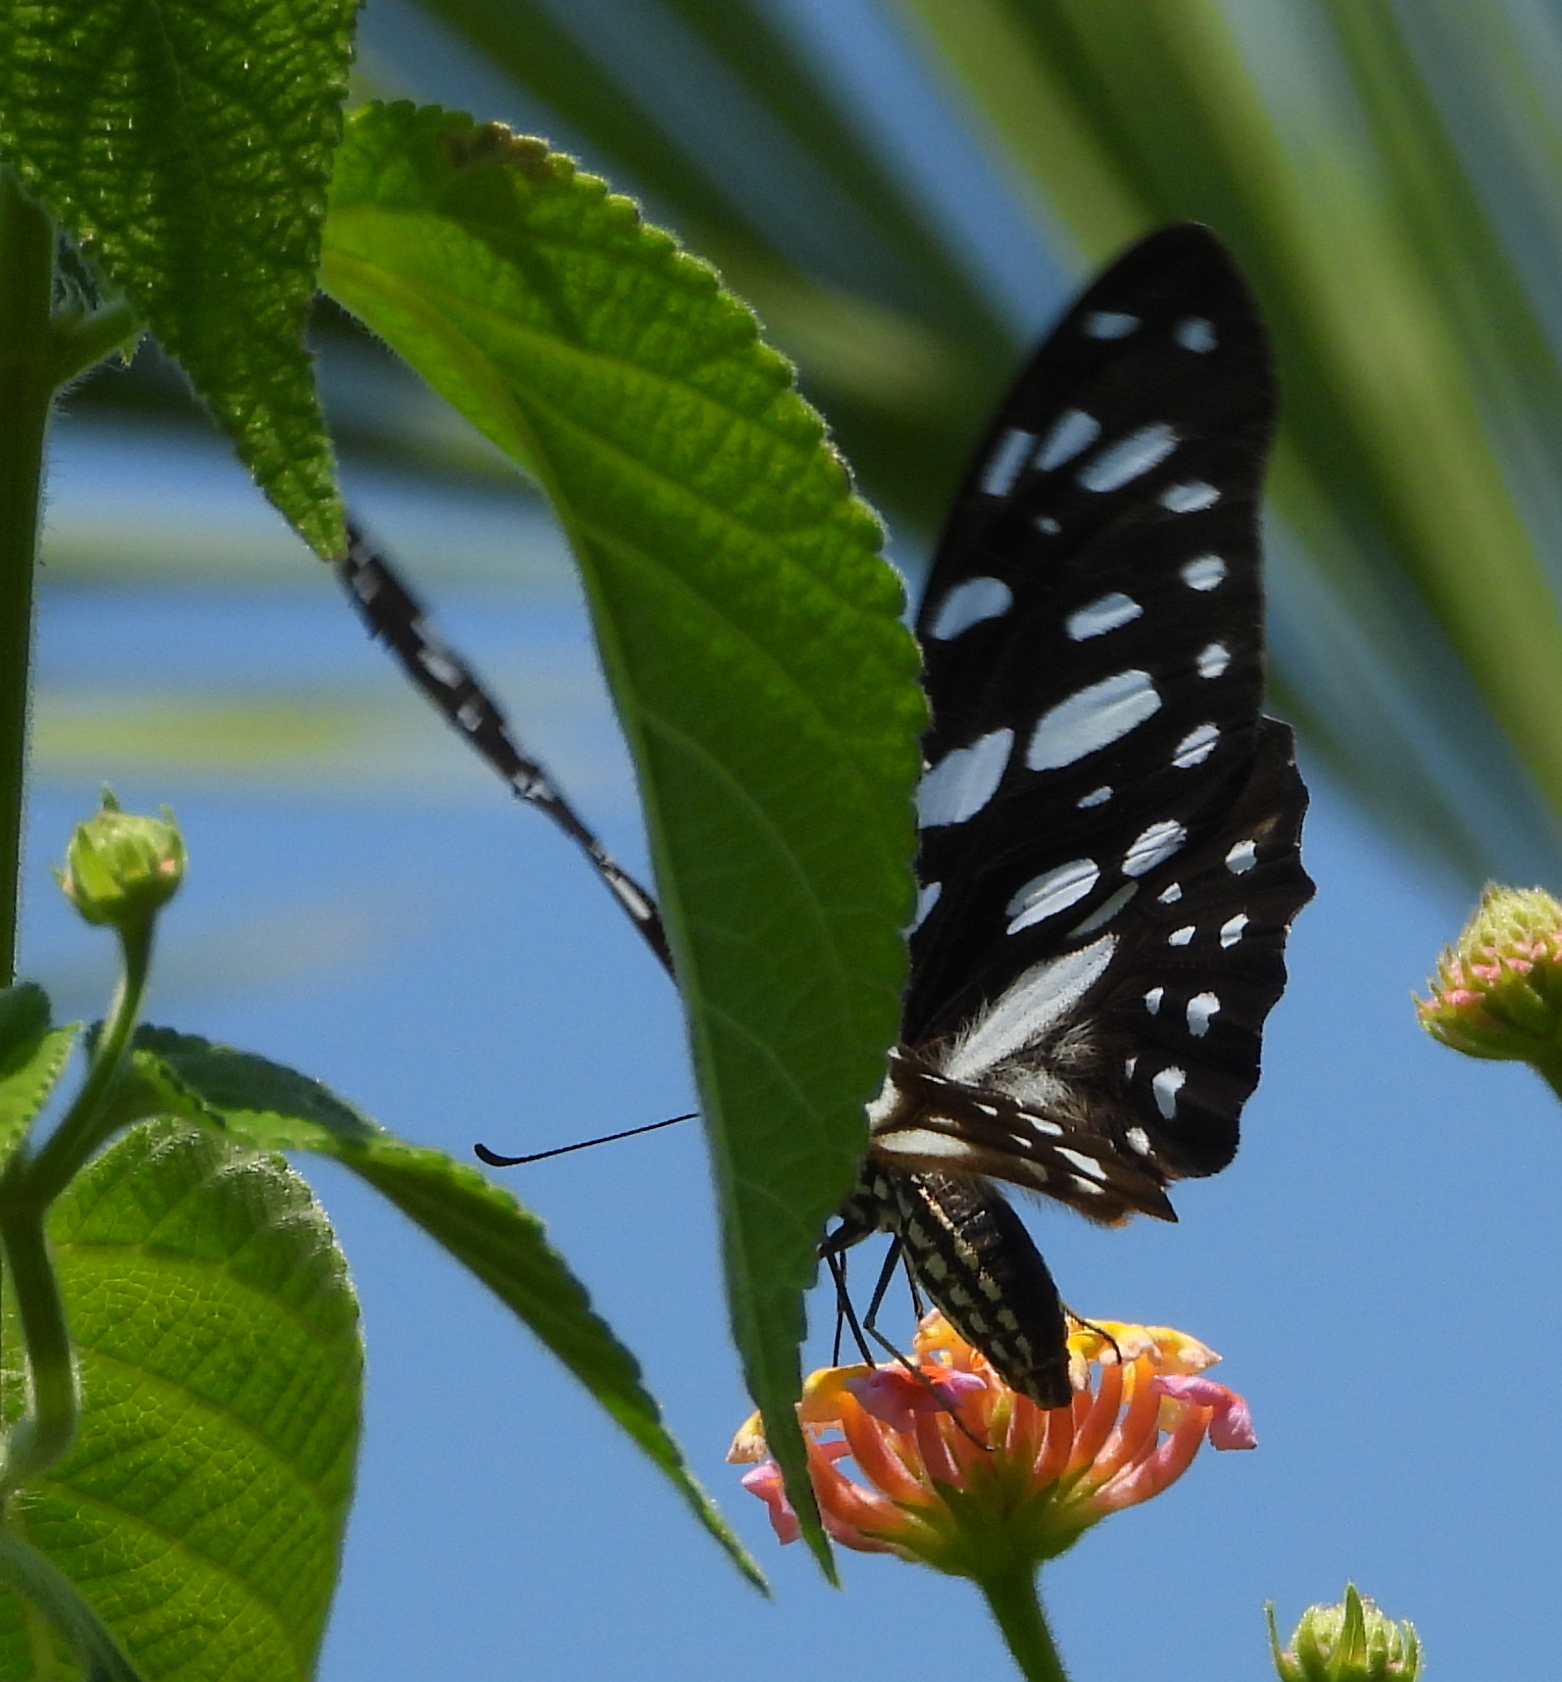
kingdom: Animalia
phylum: Arthropoda
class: Insecta
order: Lepidoptera
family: Papilionidae
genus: Graphium
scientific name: Graphium leonidas
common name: Common graphium
